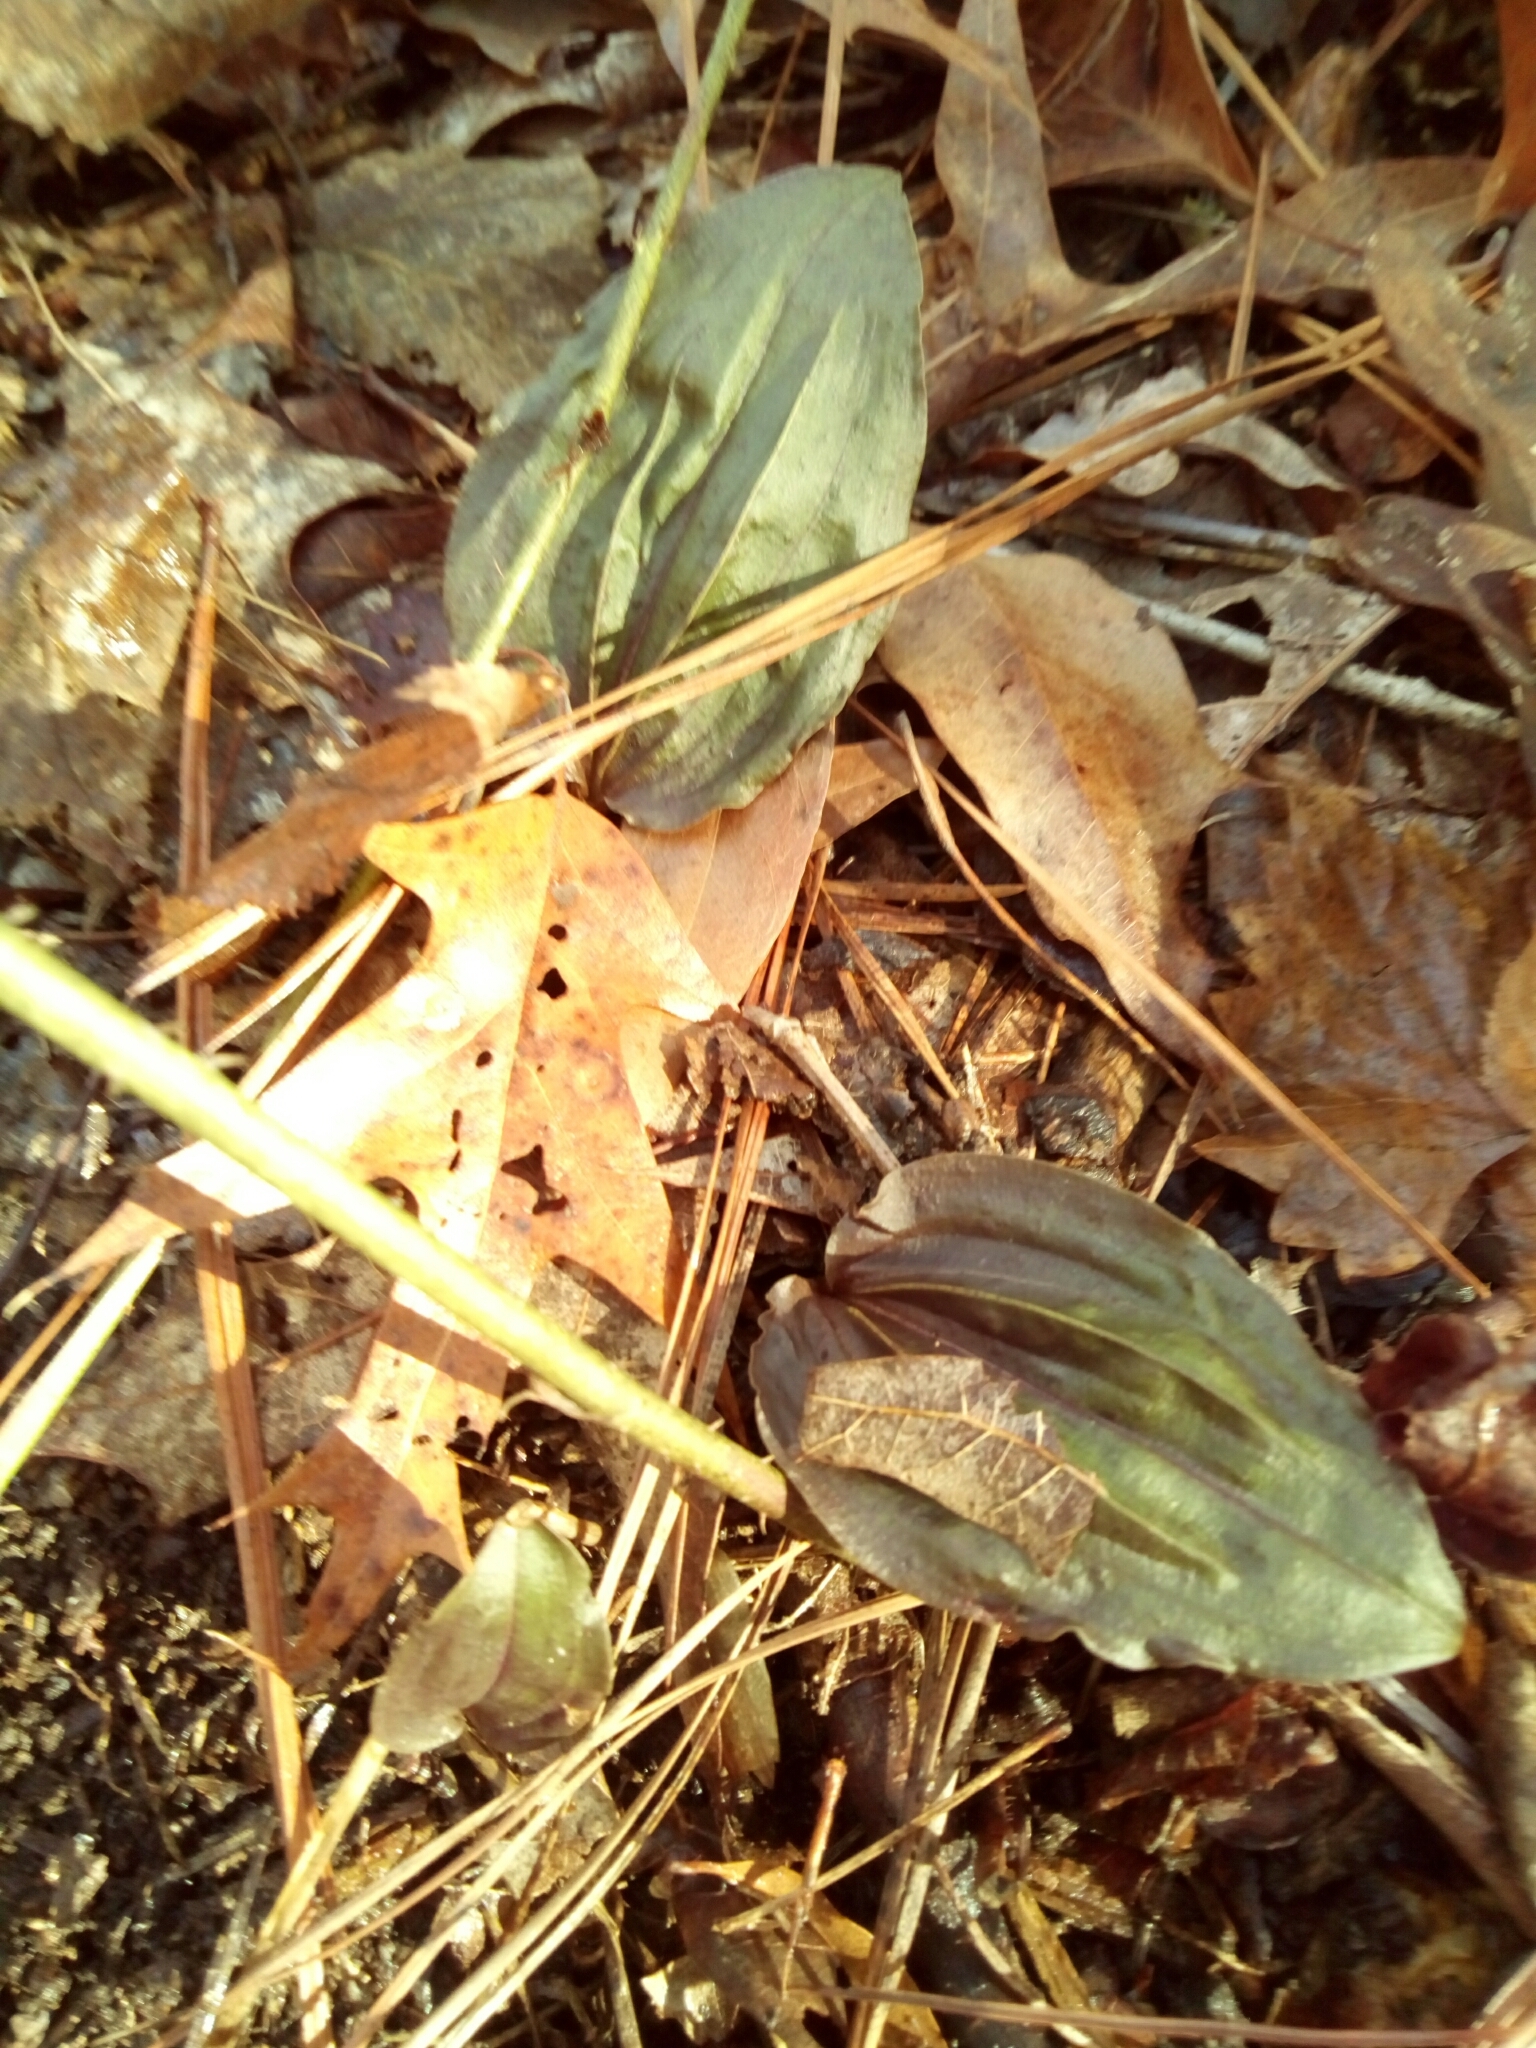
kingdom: Plantae
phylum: Tracheophyta
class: Liliopsida
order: Asparagales
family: Orchidaceae
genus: Tipularia
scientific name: Tipularia discolor
